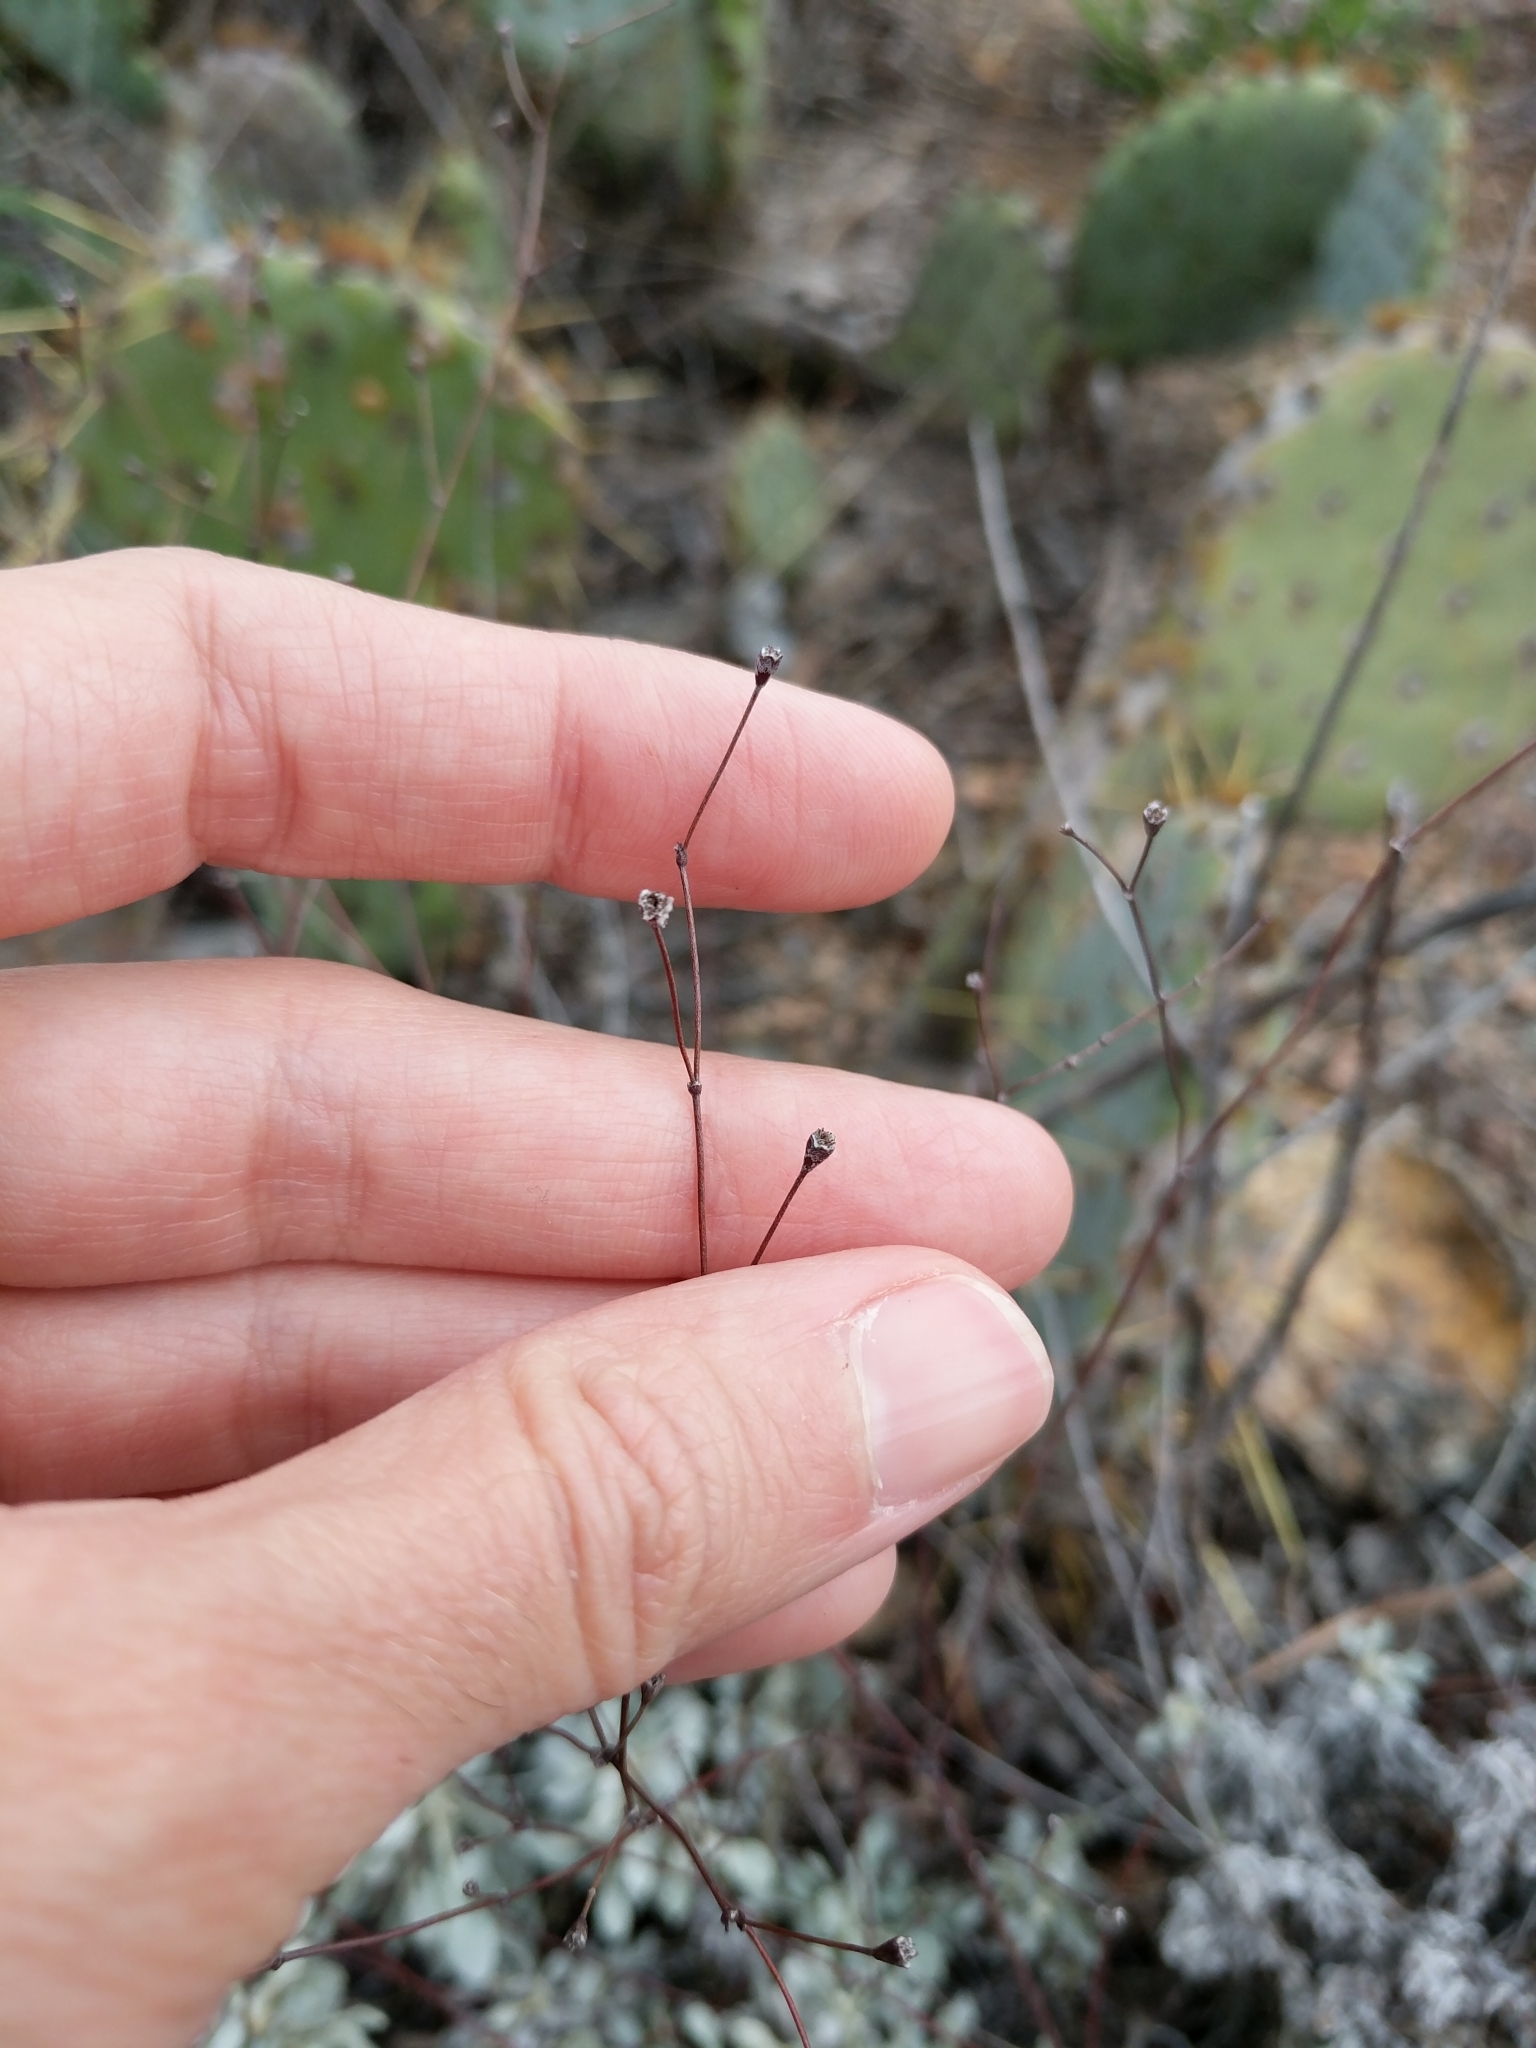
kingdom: Plantae
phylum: Tracheophyta
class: Magnoliopsida
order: Caryophyllales
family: Polygonaceae
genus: Eriogonum
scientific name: Eriogonum graniticum
